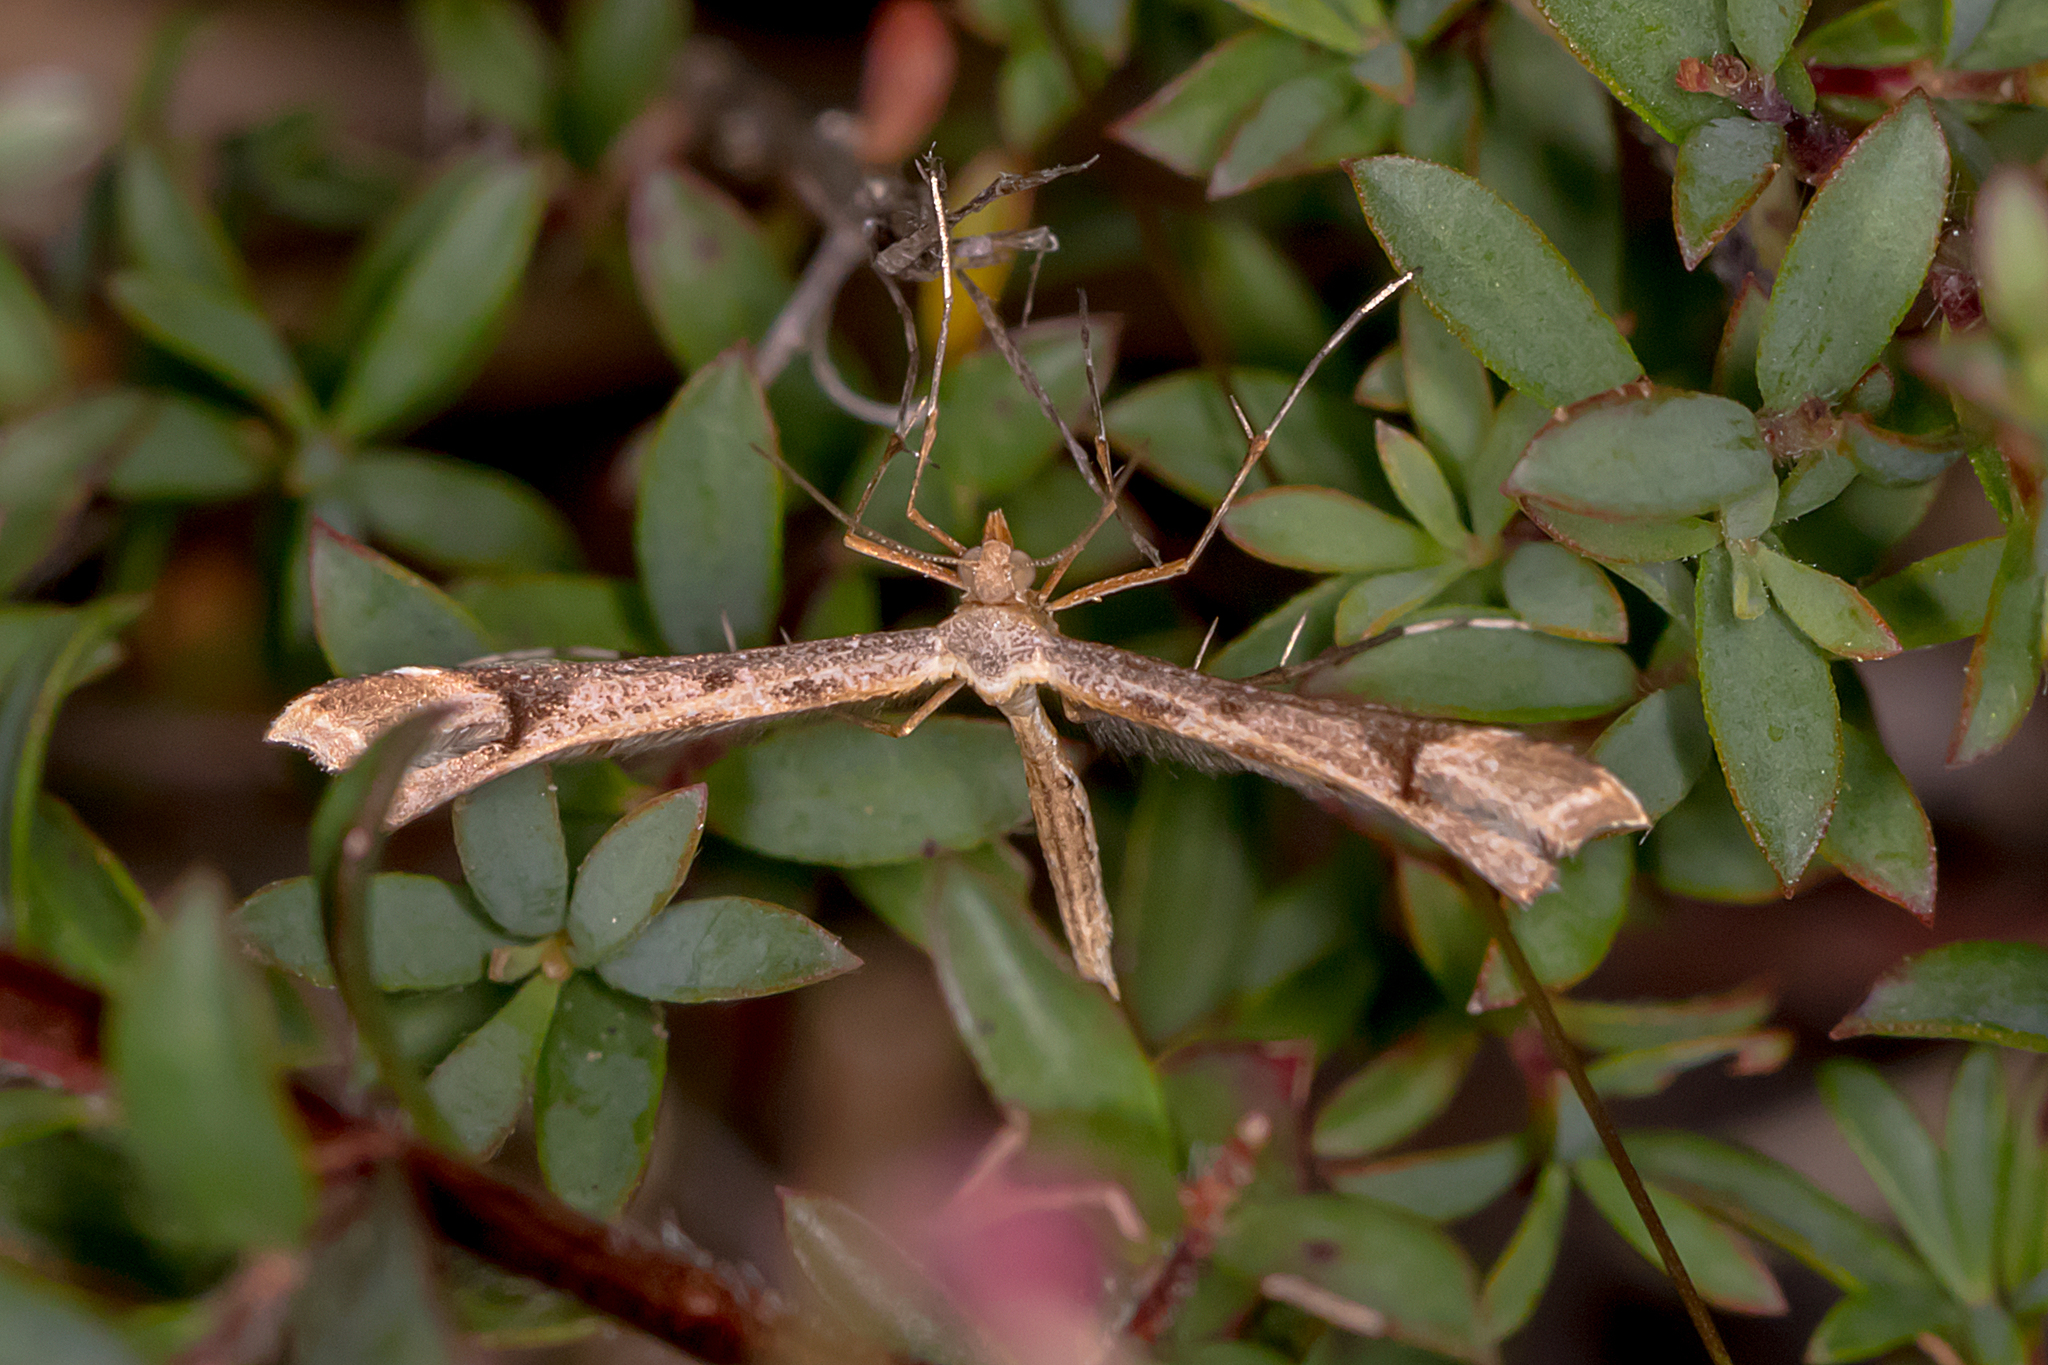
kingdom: Animalia
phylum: Arthropoda
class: Insecta
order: Lepidoptera
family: Pterophoridae
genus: Sinpunctiptilia
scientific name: Sinpunctiptilia emissalis
